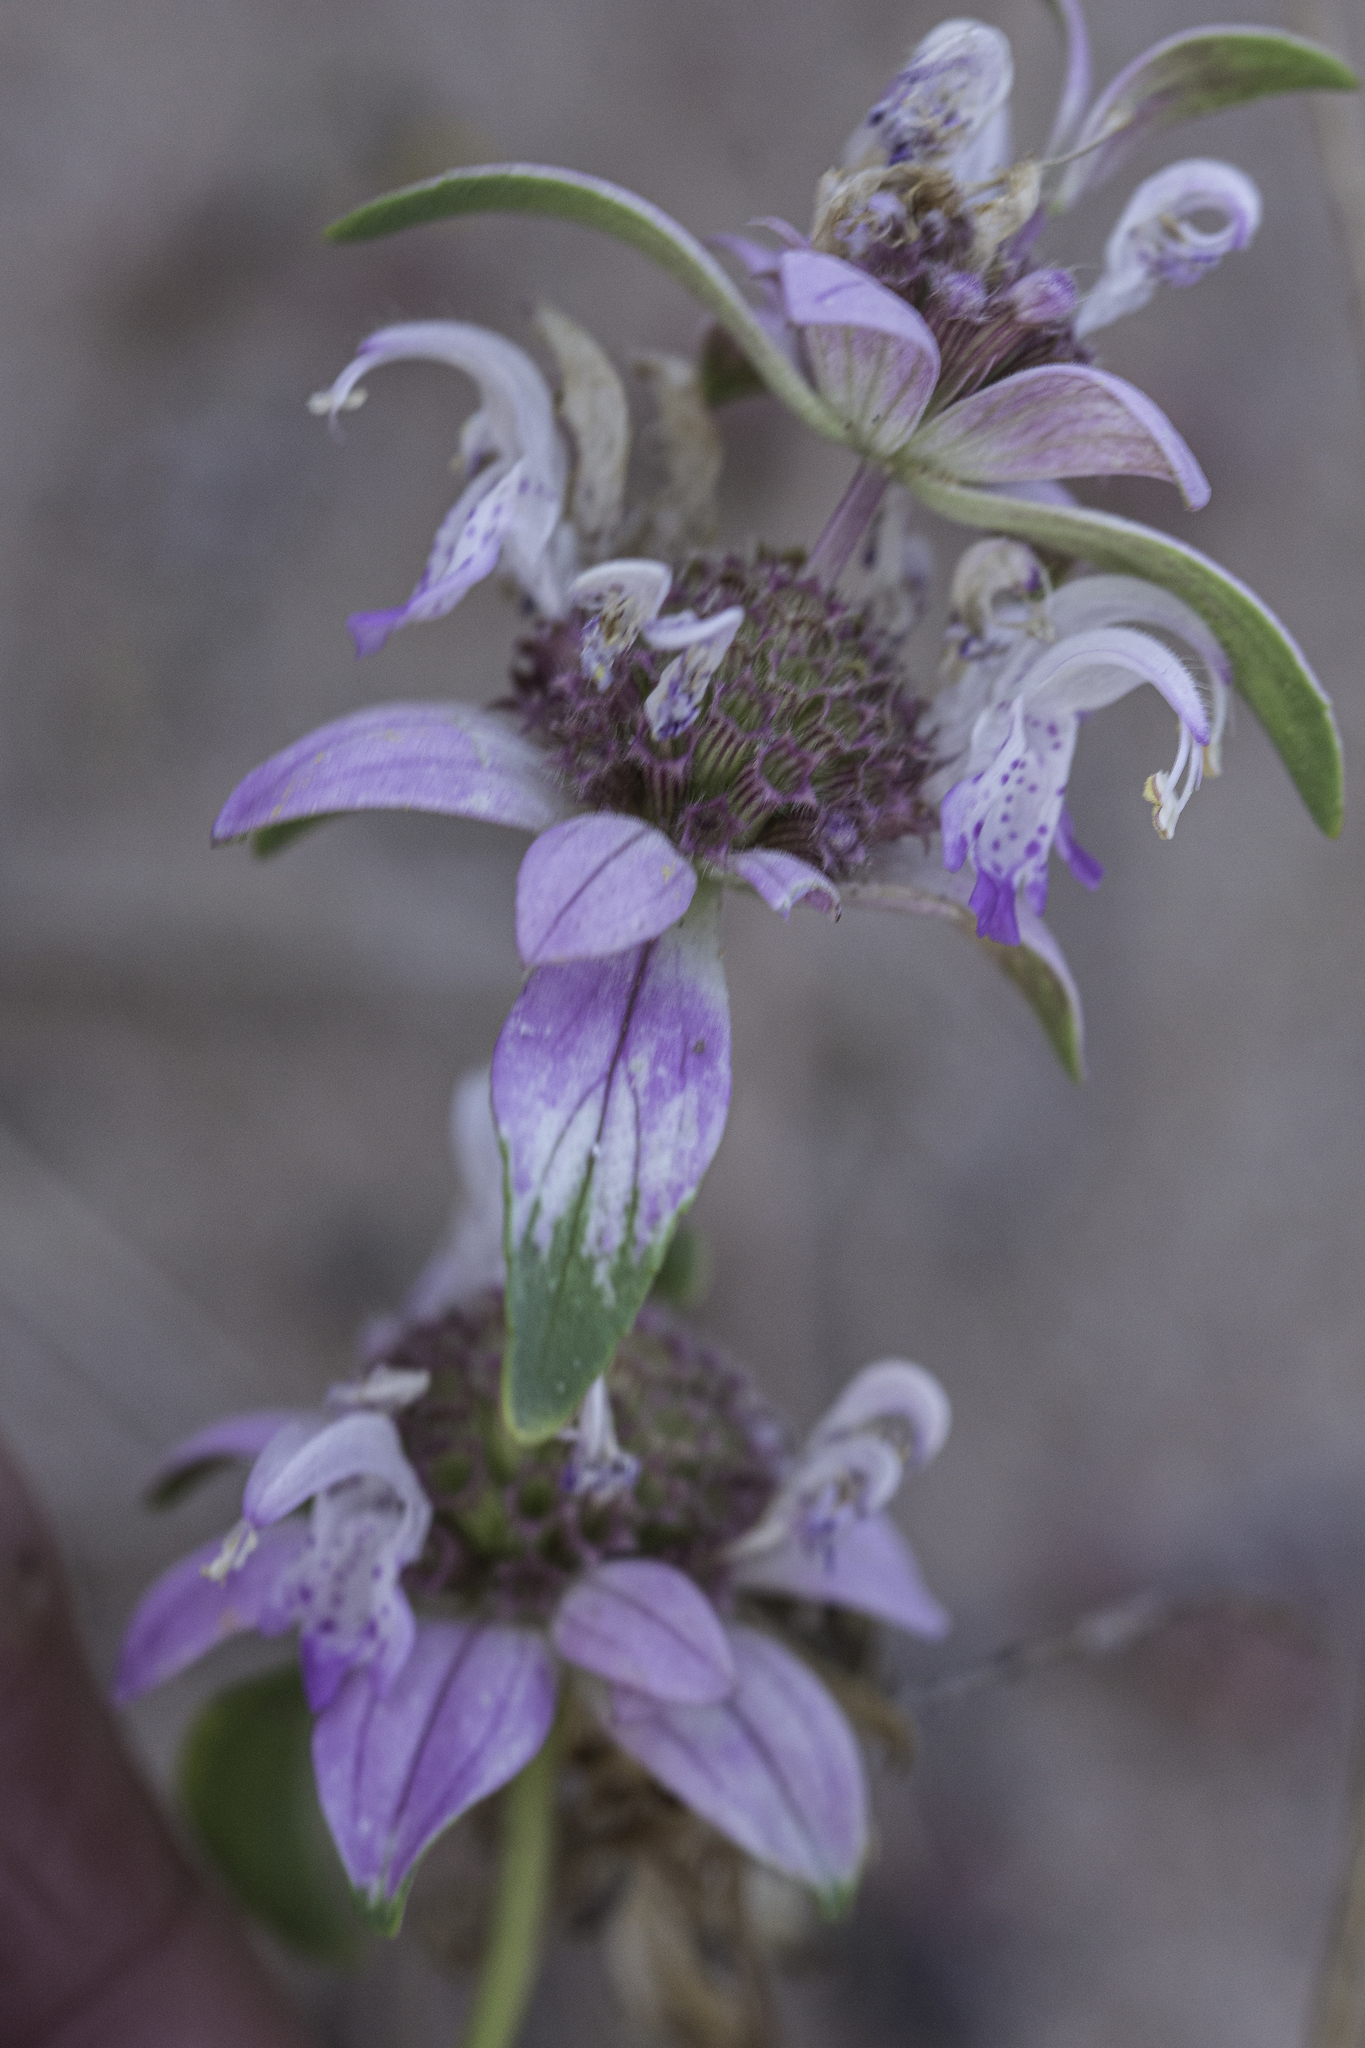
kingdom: Plantae
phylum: Tracheophyta
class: Magnoliopsida
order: Lamiales
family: Lamiaceae
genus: Monarda
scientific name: Monarda humilis
